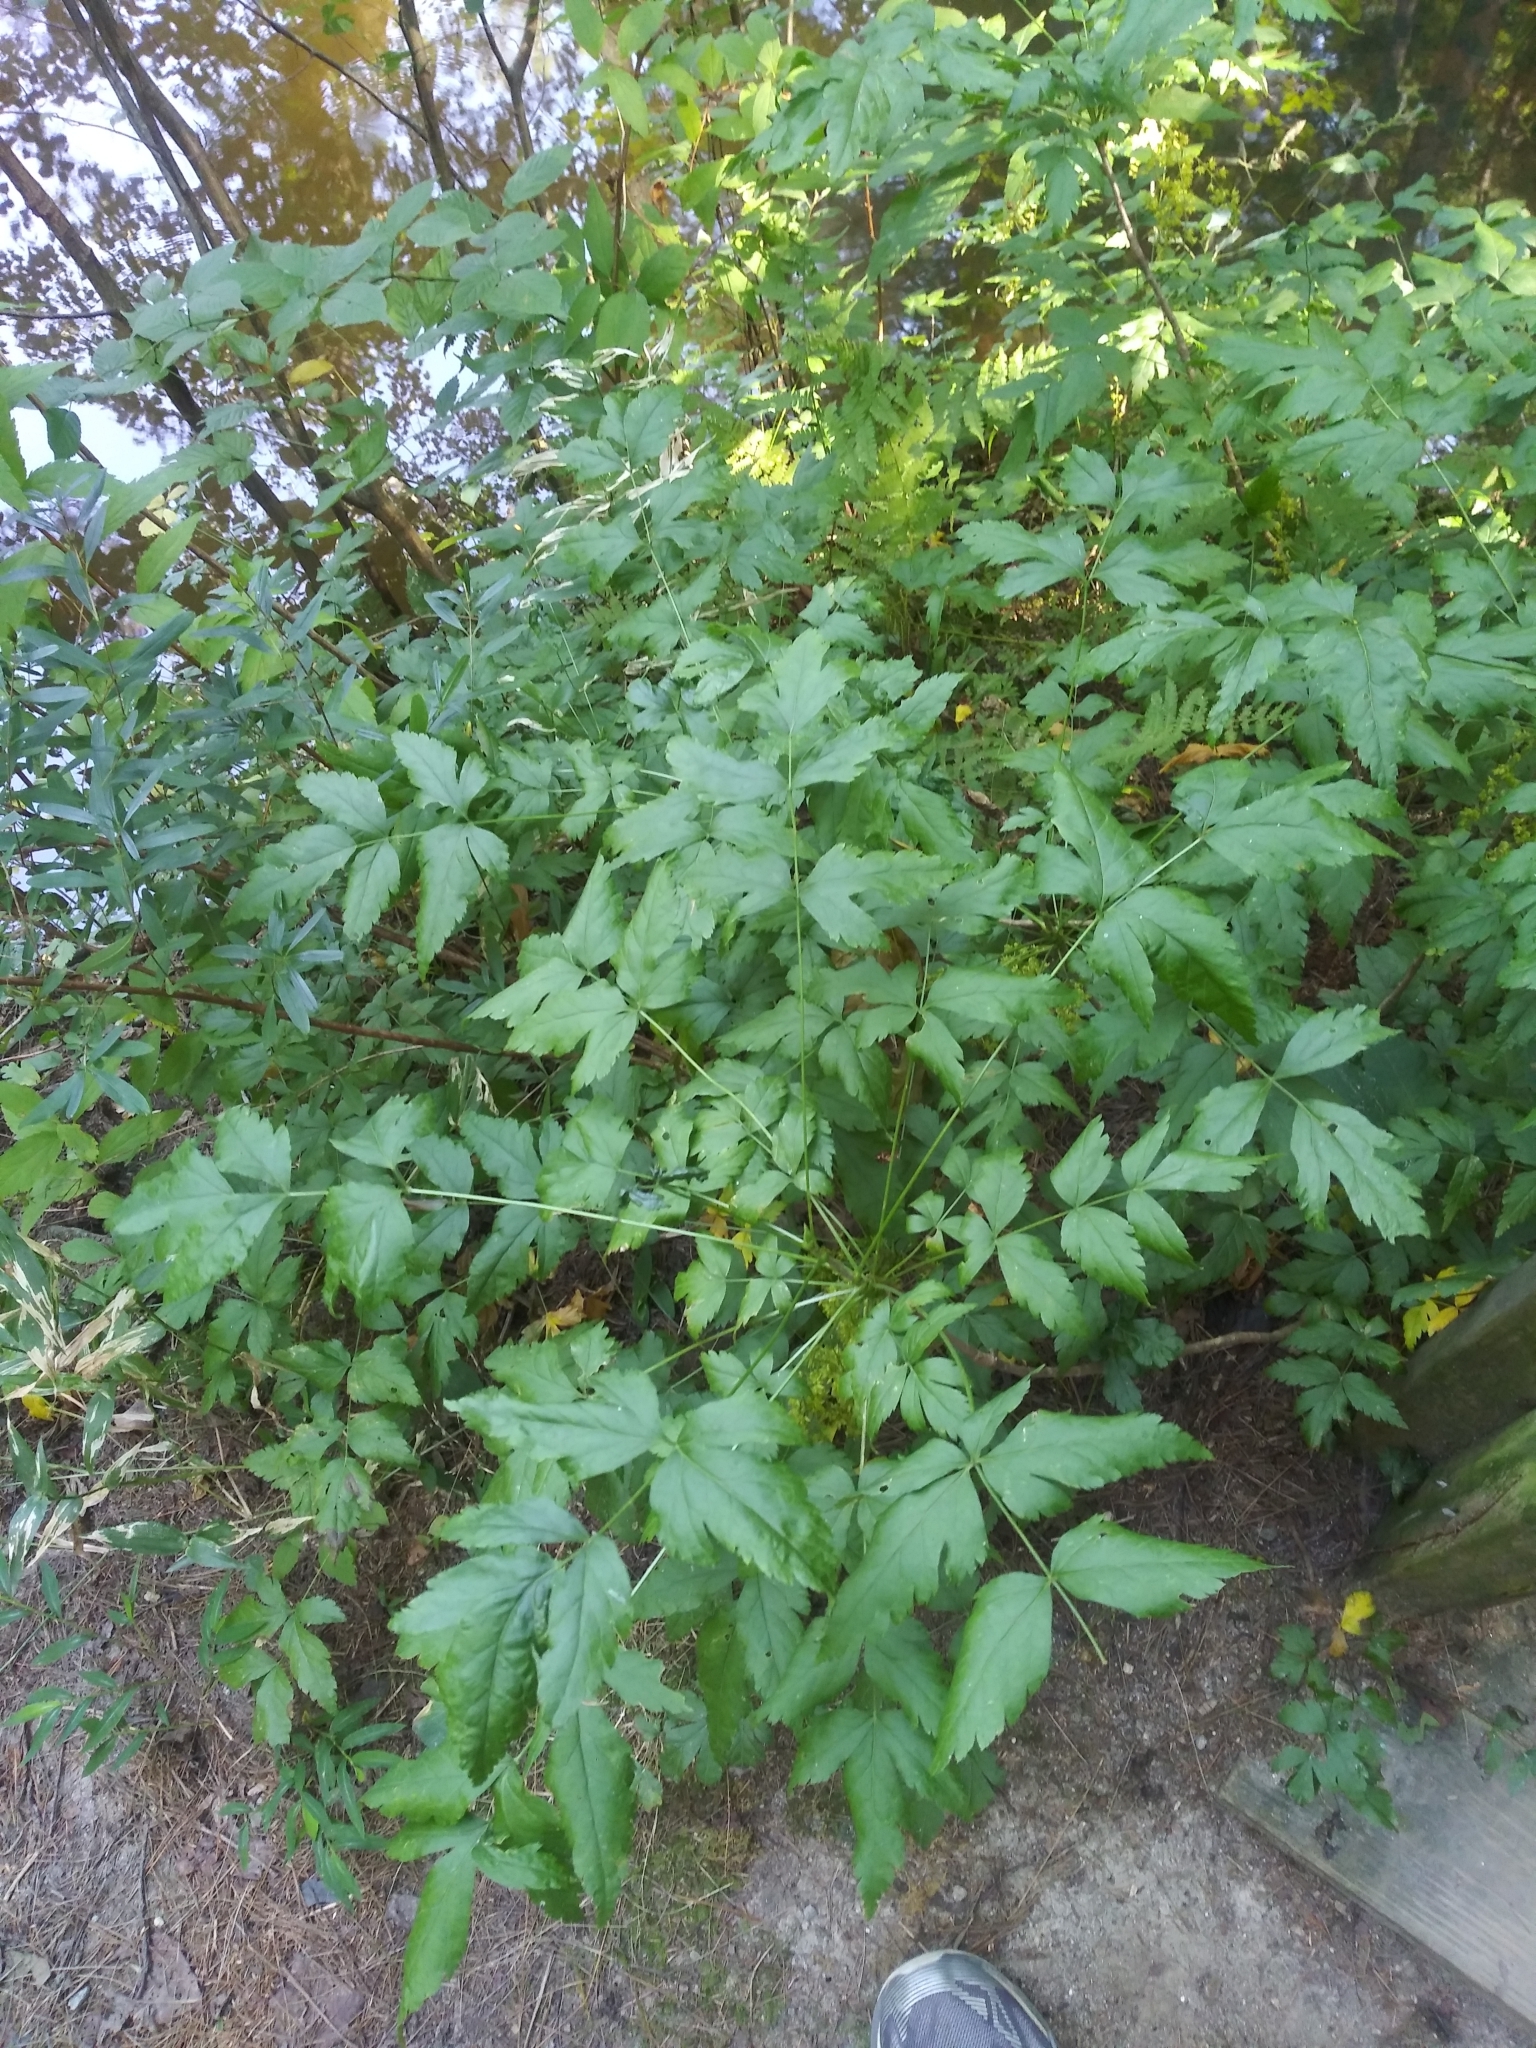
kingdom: Plantae
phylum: Tracheophyta
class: Magnoliopsida
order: Ranunculales
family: Ranunculaceae
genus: Xanthorhiza
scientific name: Xanthorhiza simplicissima
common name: Yellowroot
